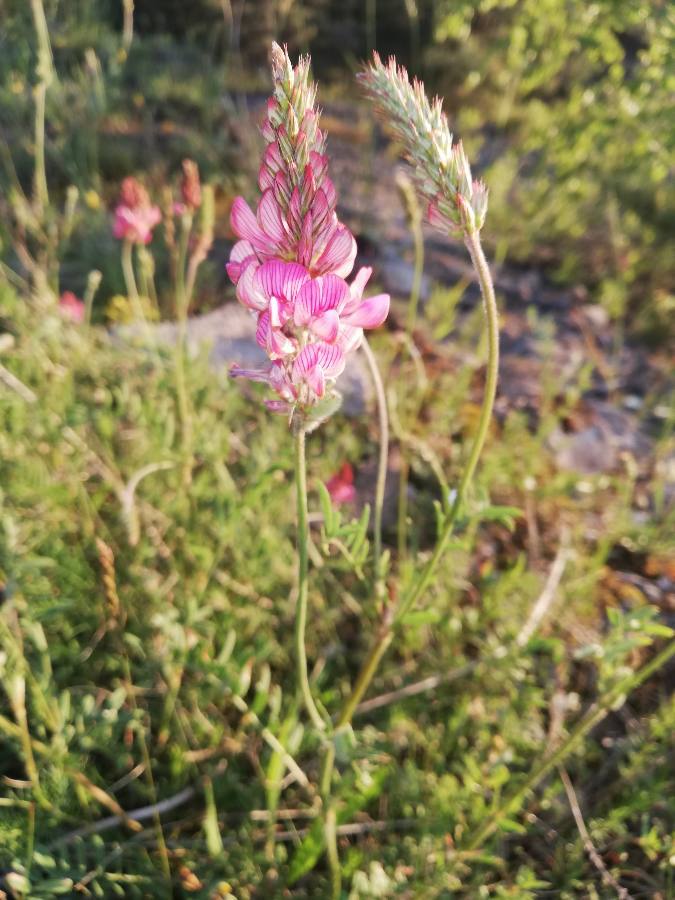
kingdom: Plantae
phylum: Tracheophyta
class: Magnoliopsida
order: Fabales
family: Fabaceae
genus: Onobrychis
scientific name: Onobrychis viciifolia
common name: Sainfoin
